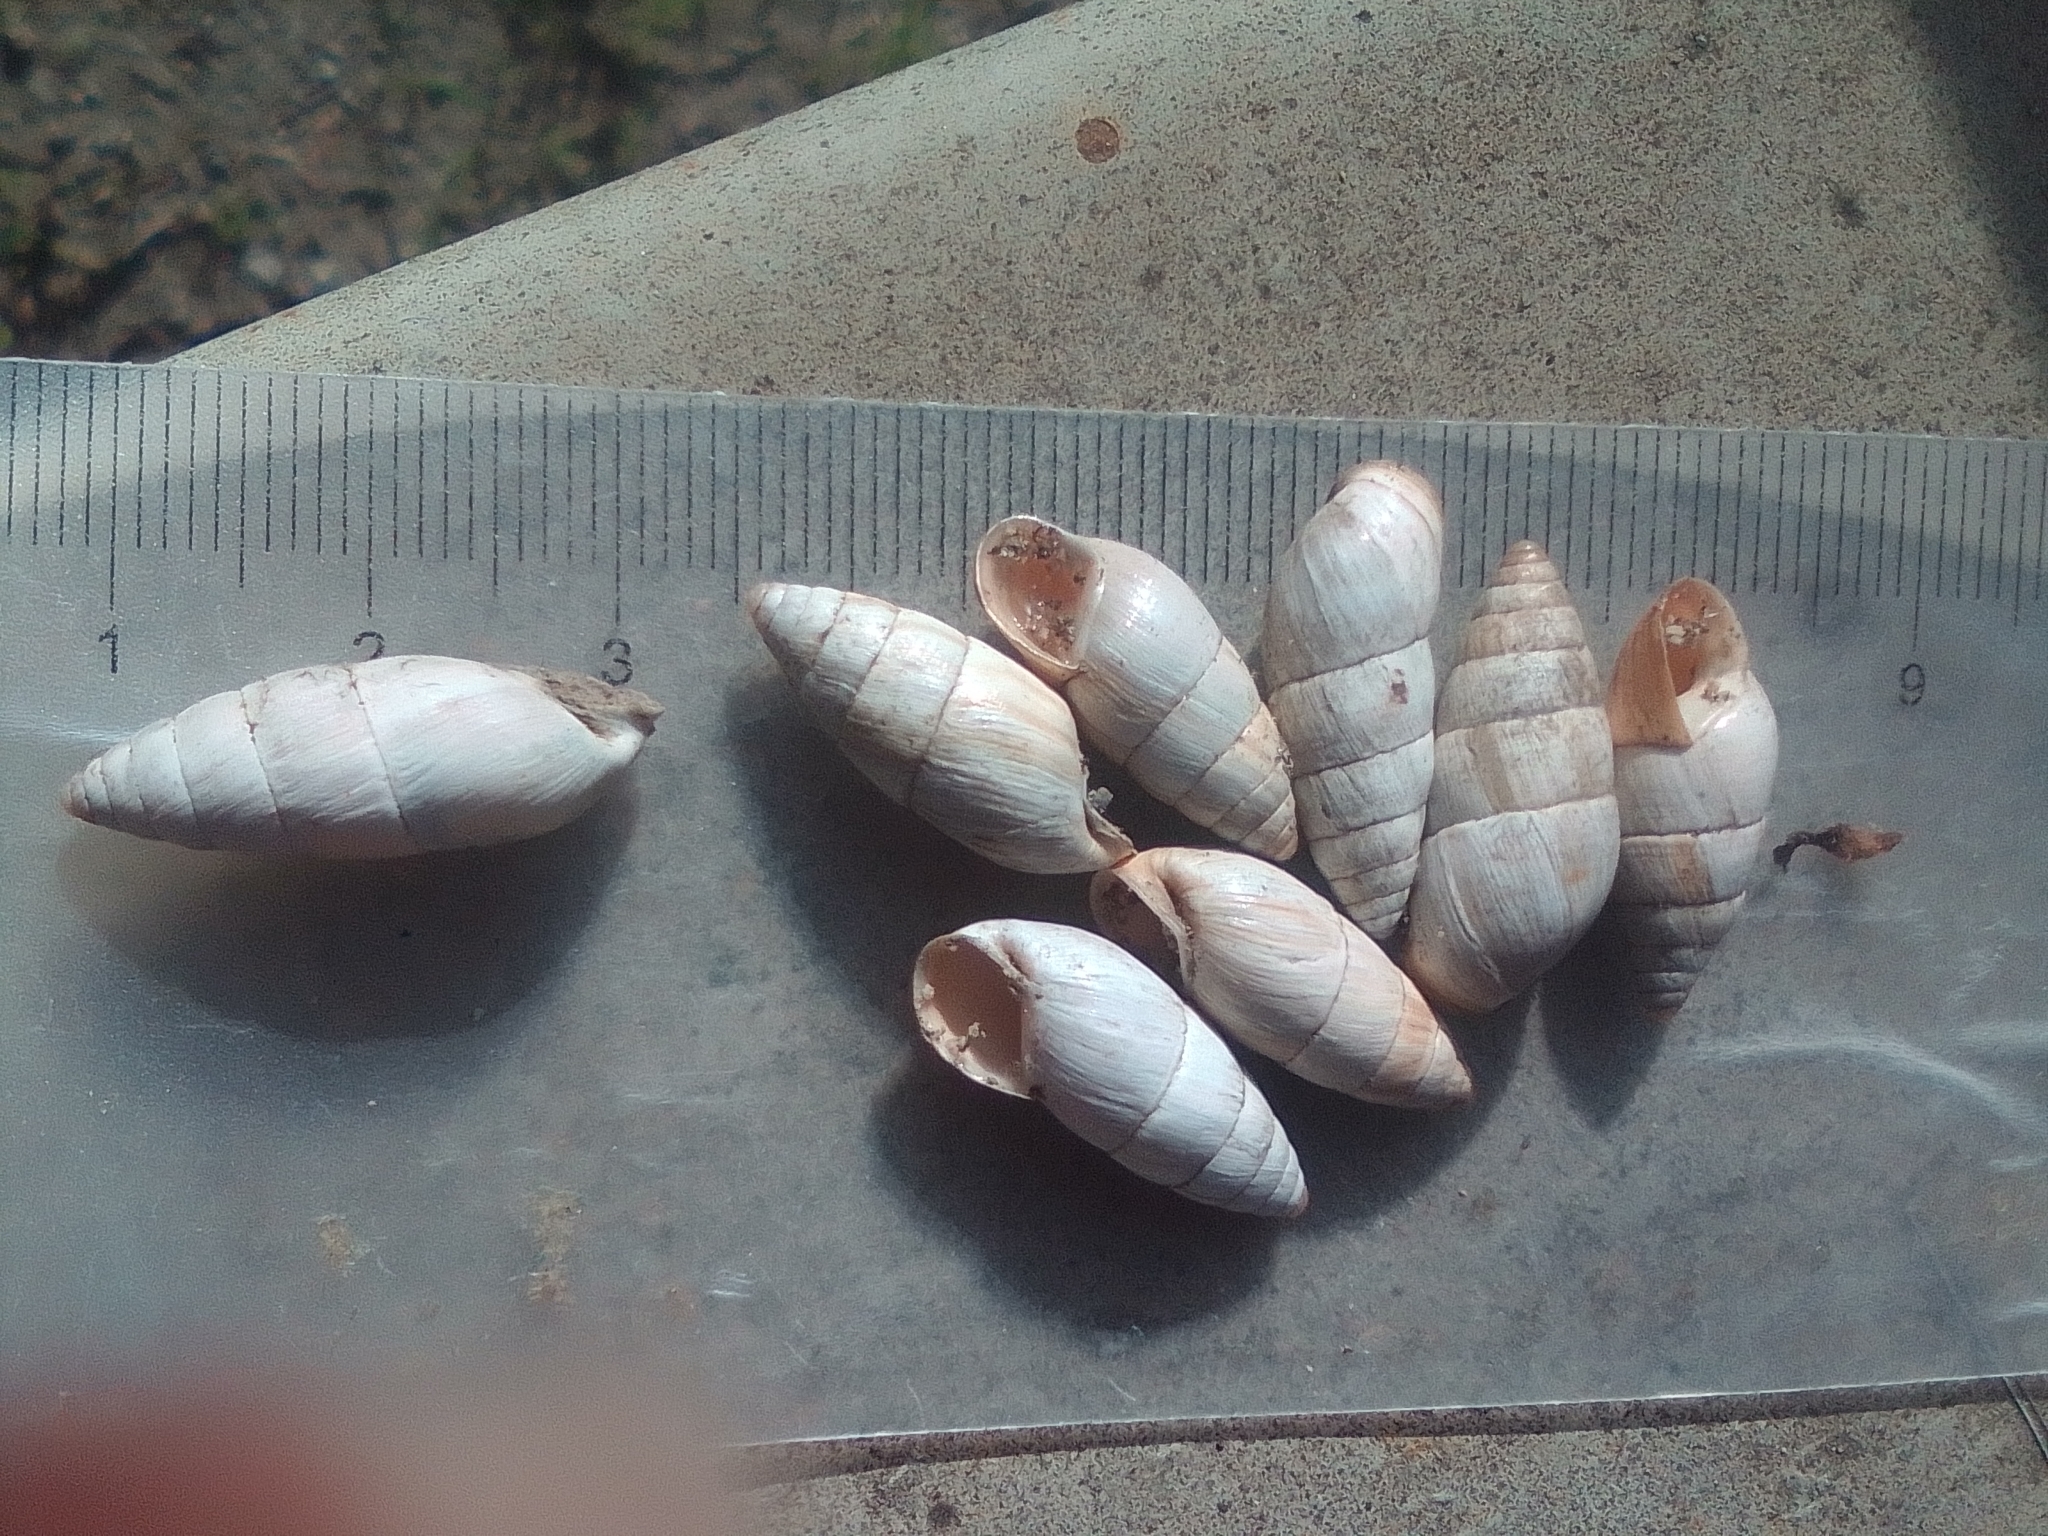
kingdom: Animalia
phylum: Mollusca
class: Gastropoda
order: Stylommatophora
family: Enidae
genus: Brephulopsis
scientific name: Brephulopsis cylindrica
